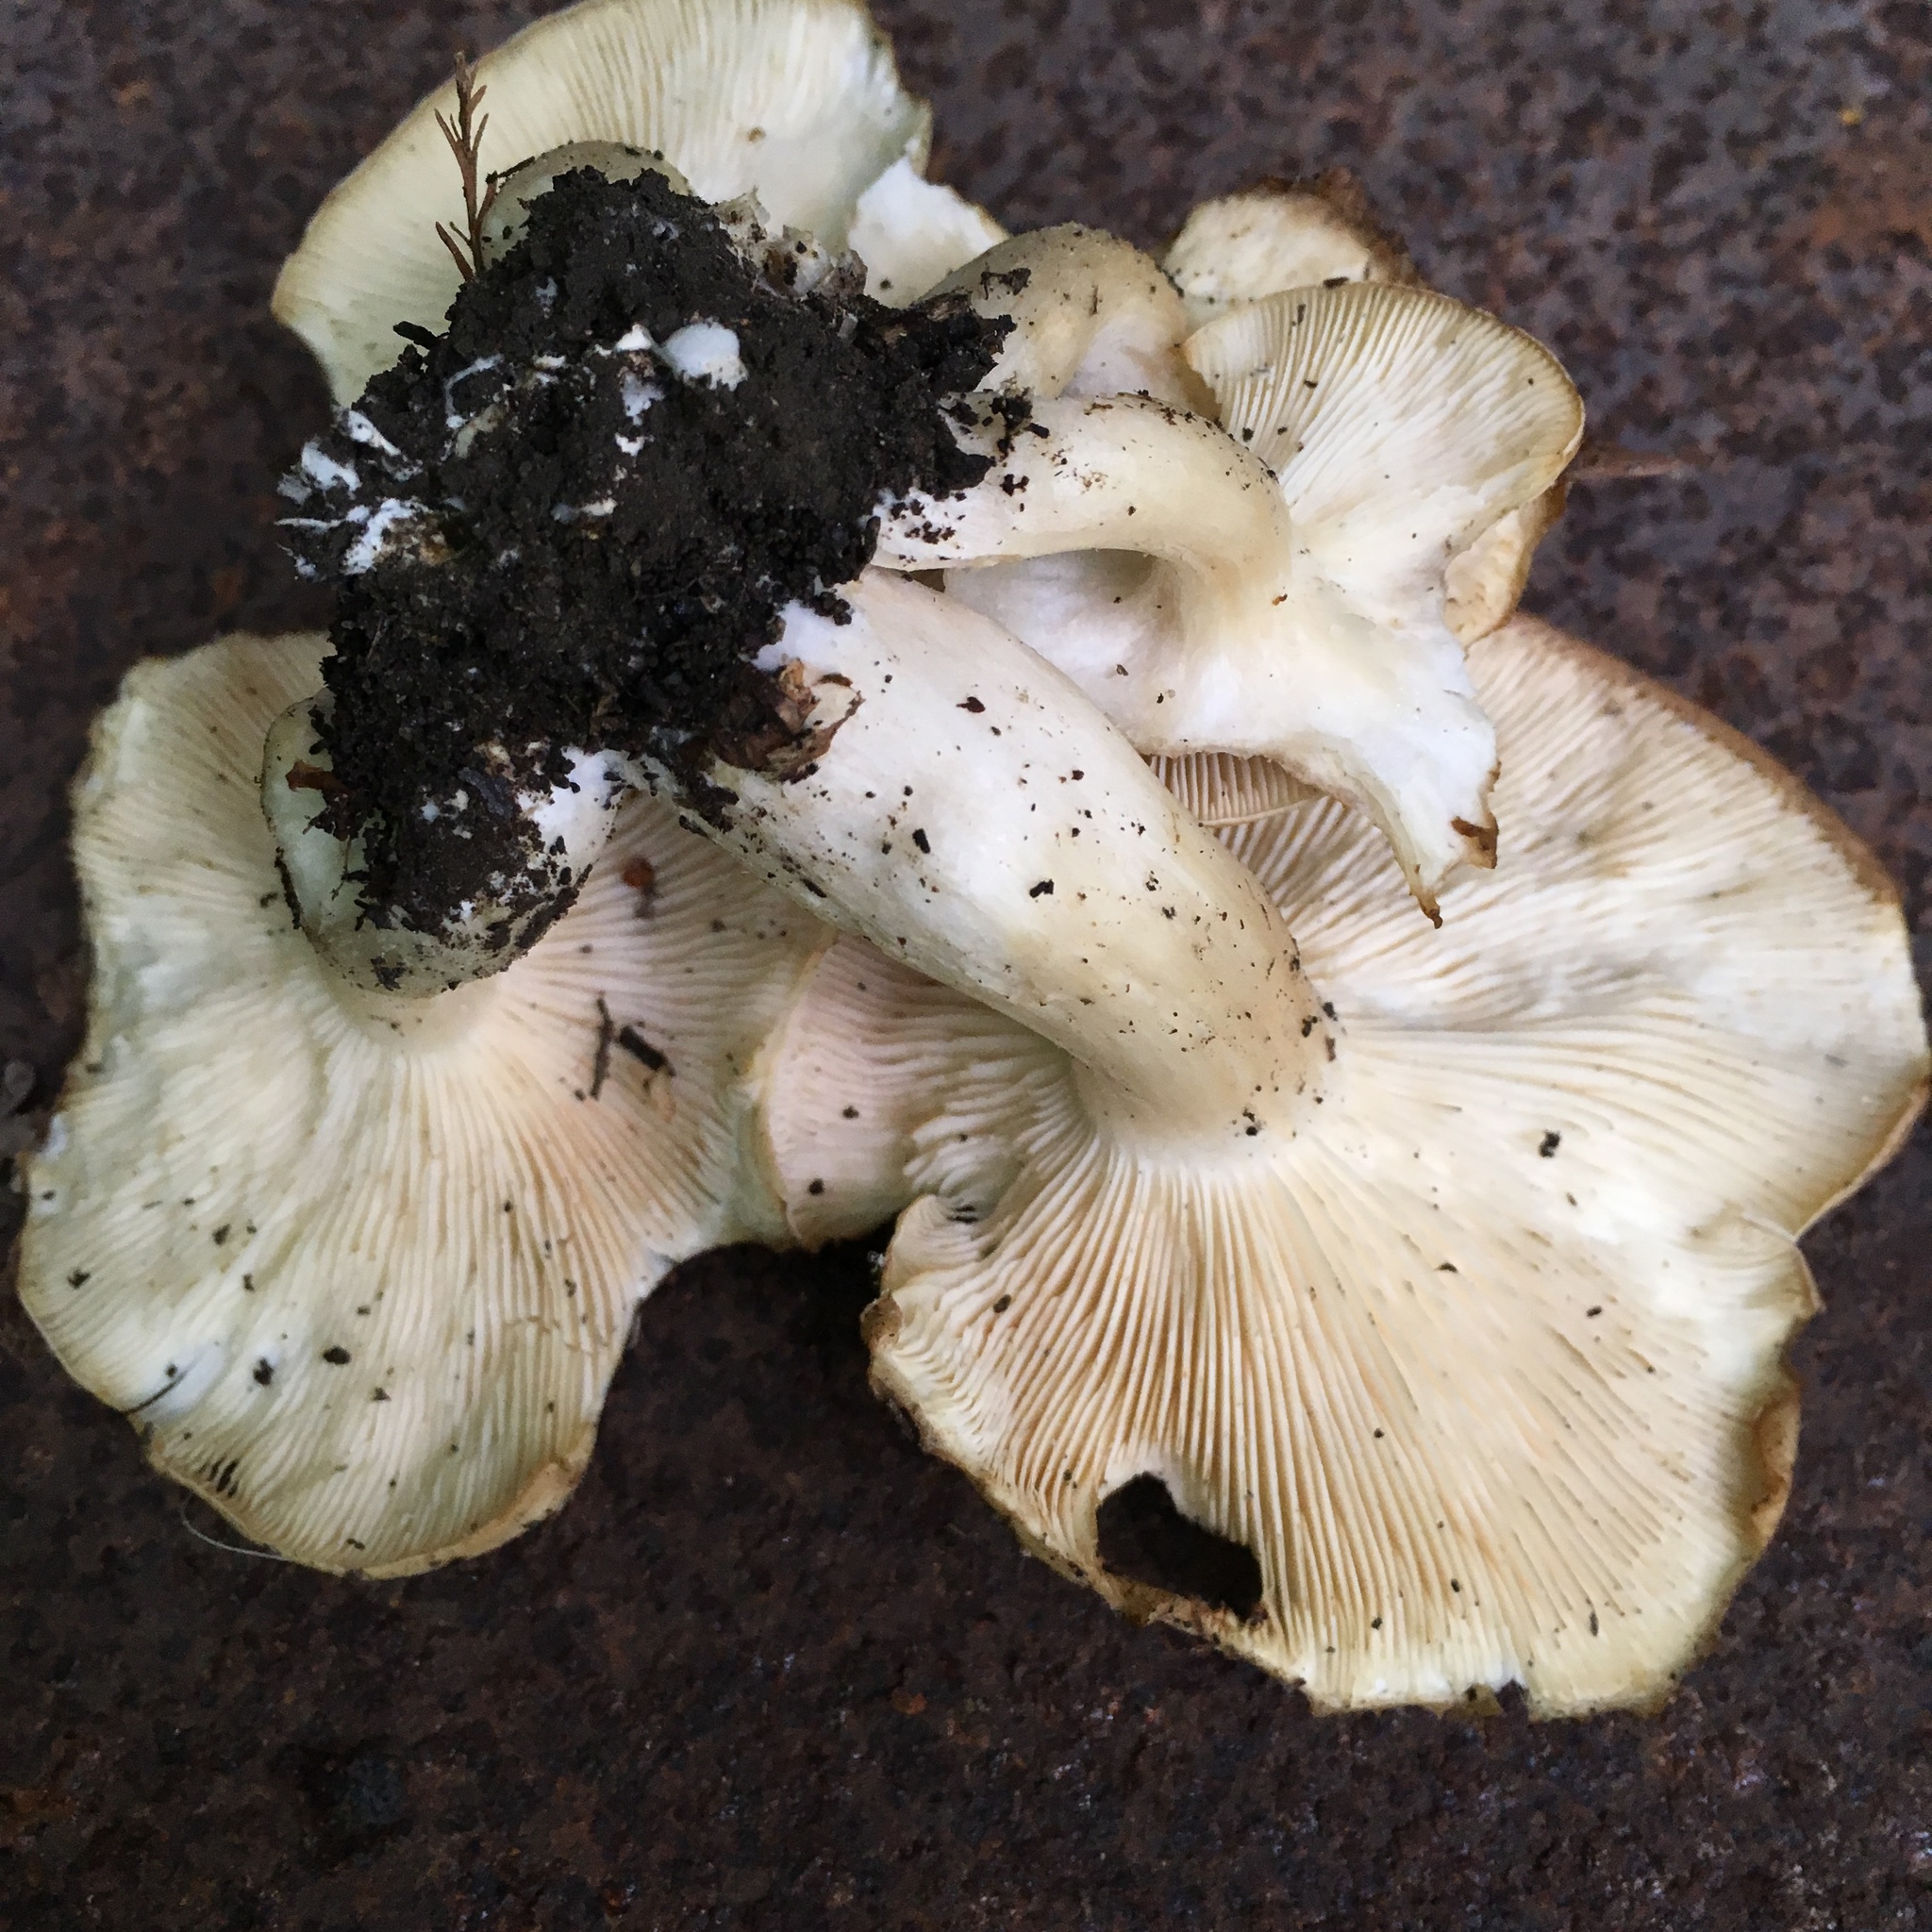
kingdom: Fungi
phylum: Basidiomycota
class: Agaricomycetes
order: Agaricales
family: Lyophyllaceae
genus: Lyophyllum
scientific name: Lyophyllum decastes
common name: Clustered domecap
